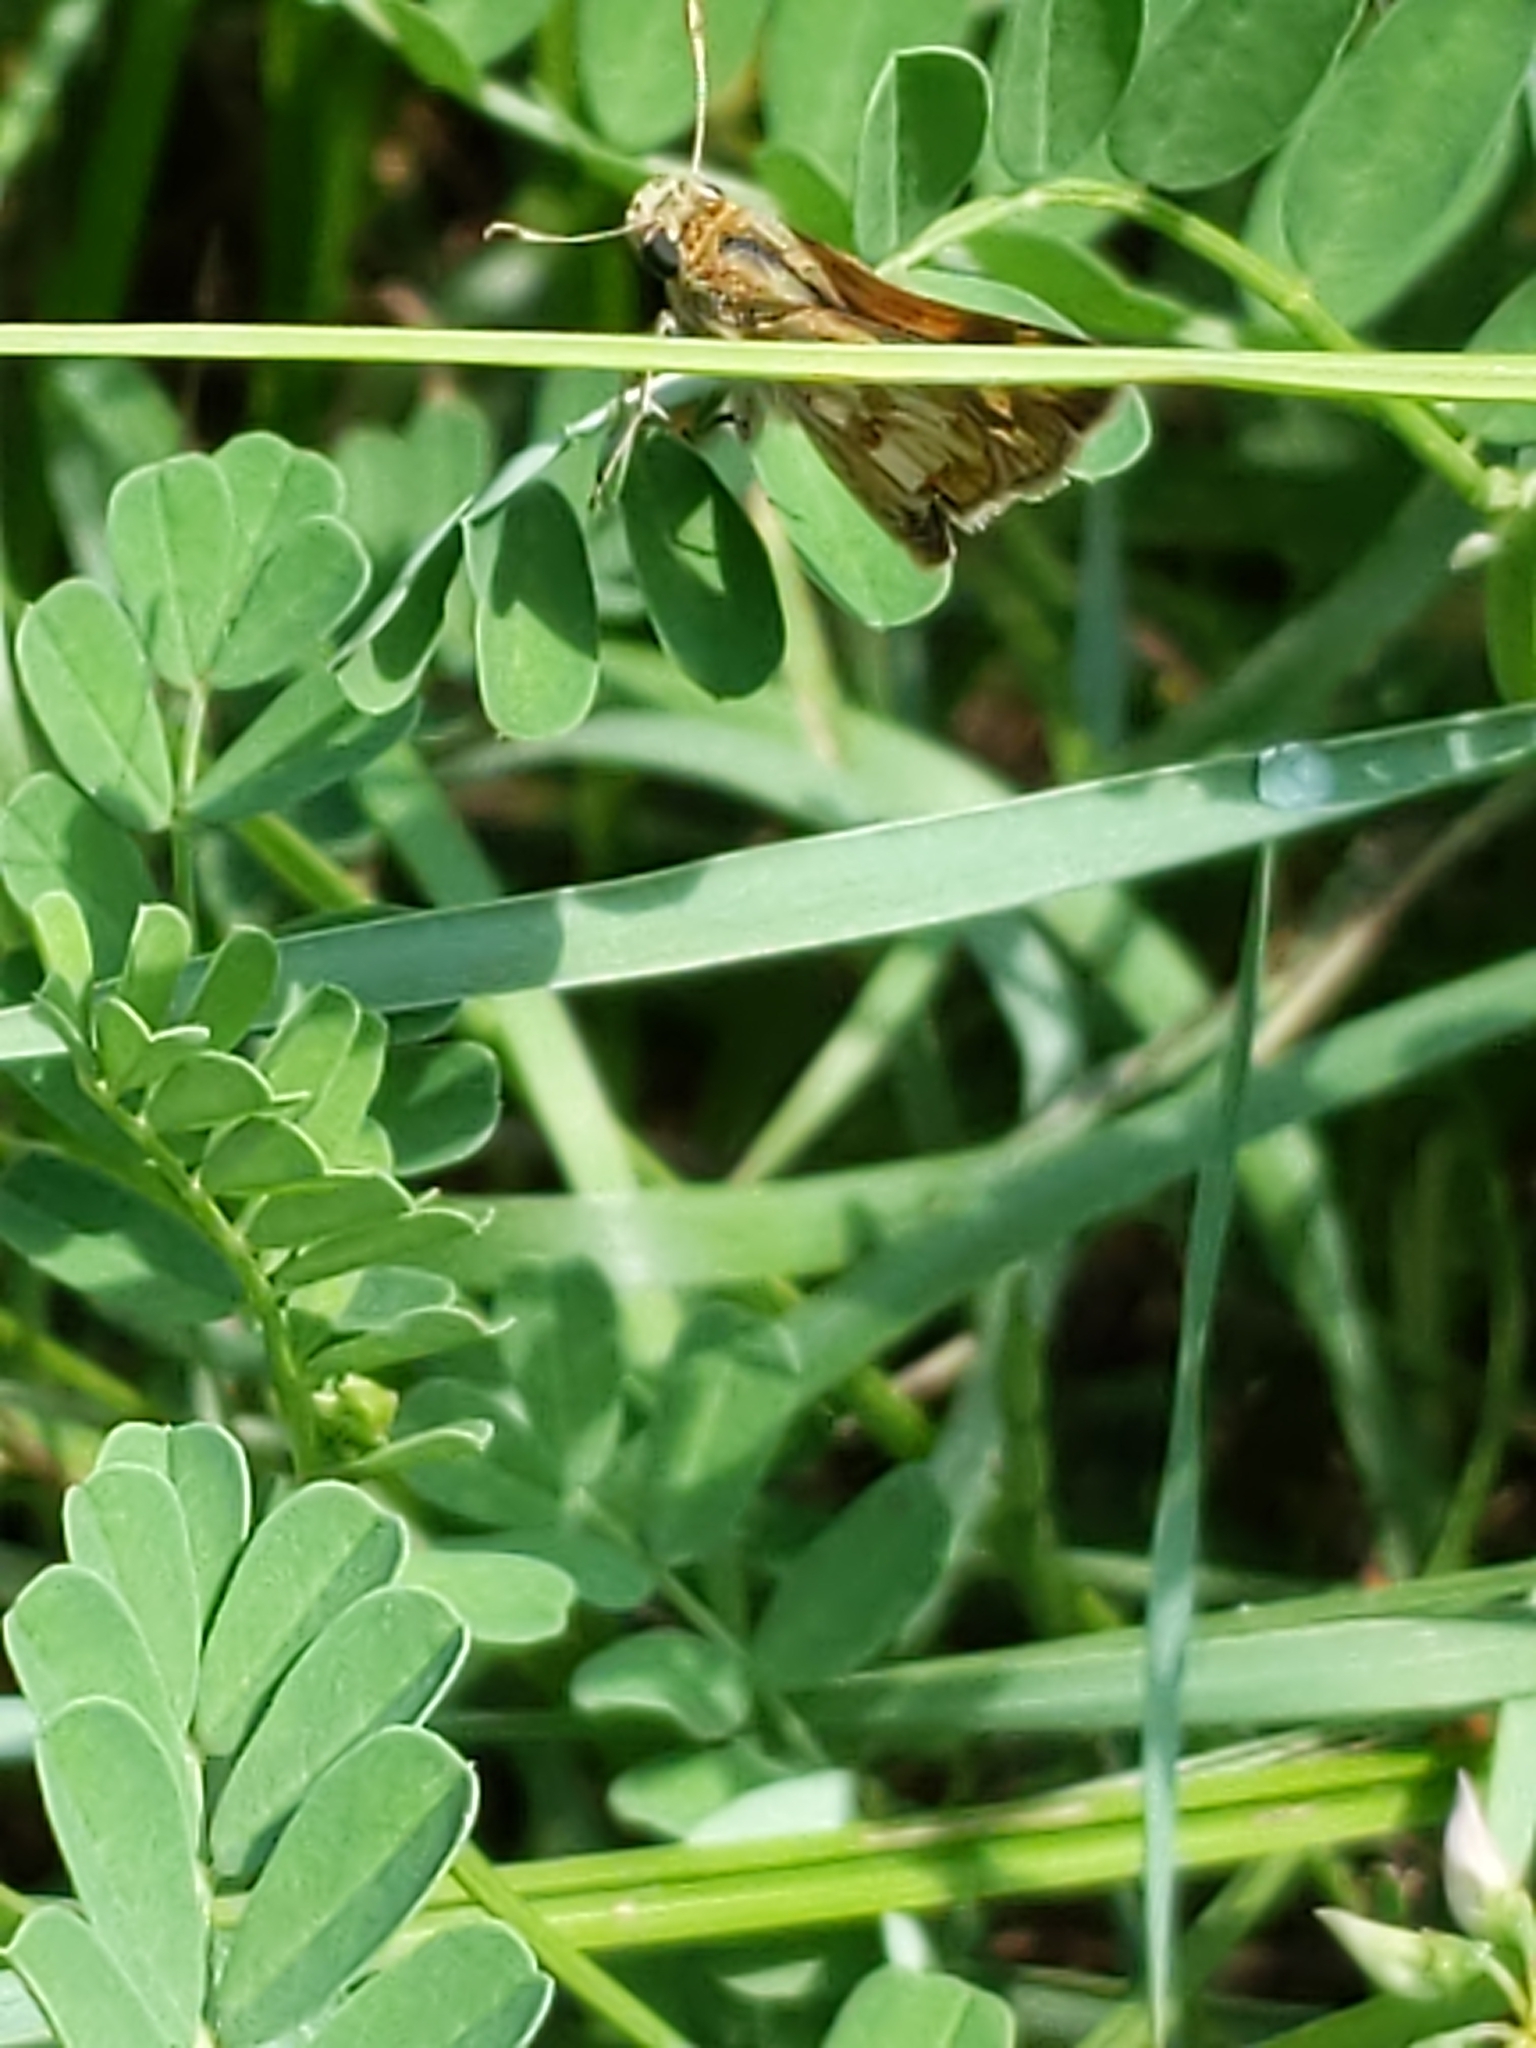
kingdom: Animalia
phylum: Arthropoda
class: Insecta
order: Lepidoptera
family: Hesperiidae
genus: Polites
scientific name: Polites coras
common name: Peck's skipper
